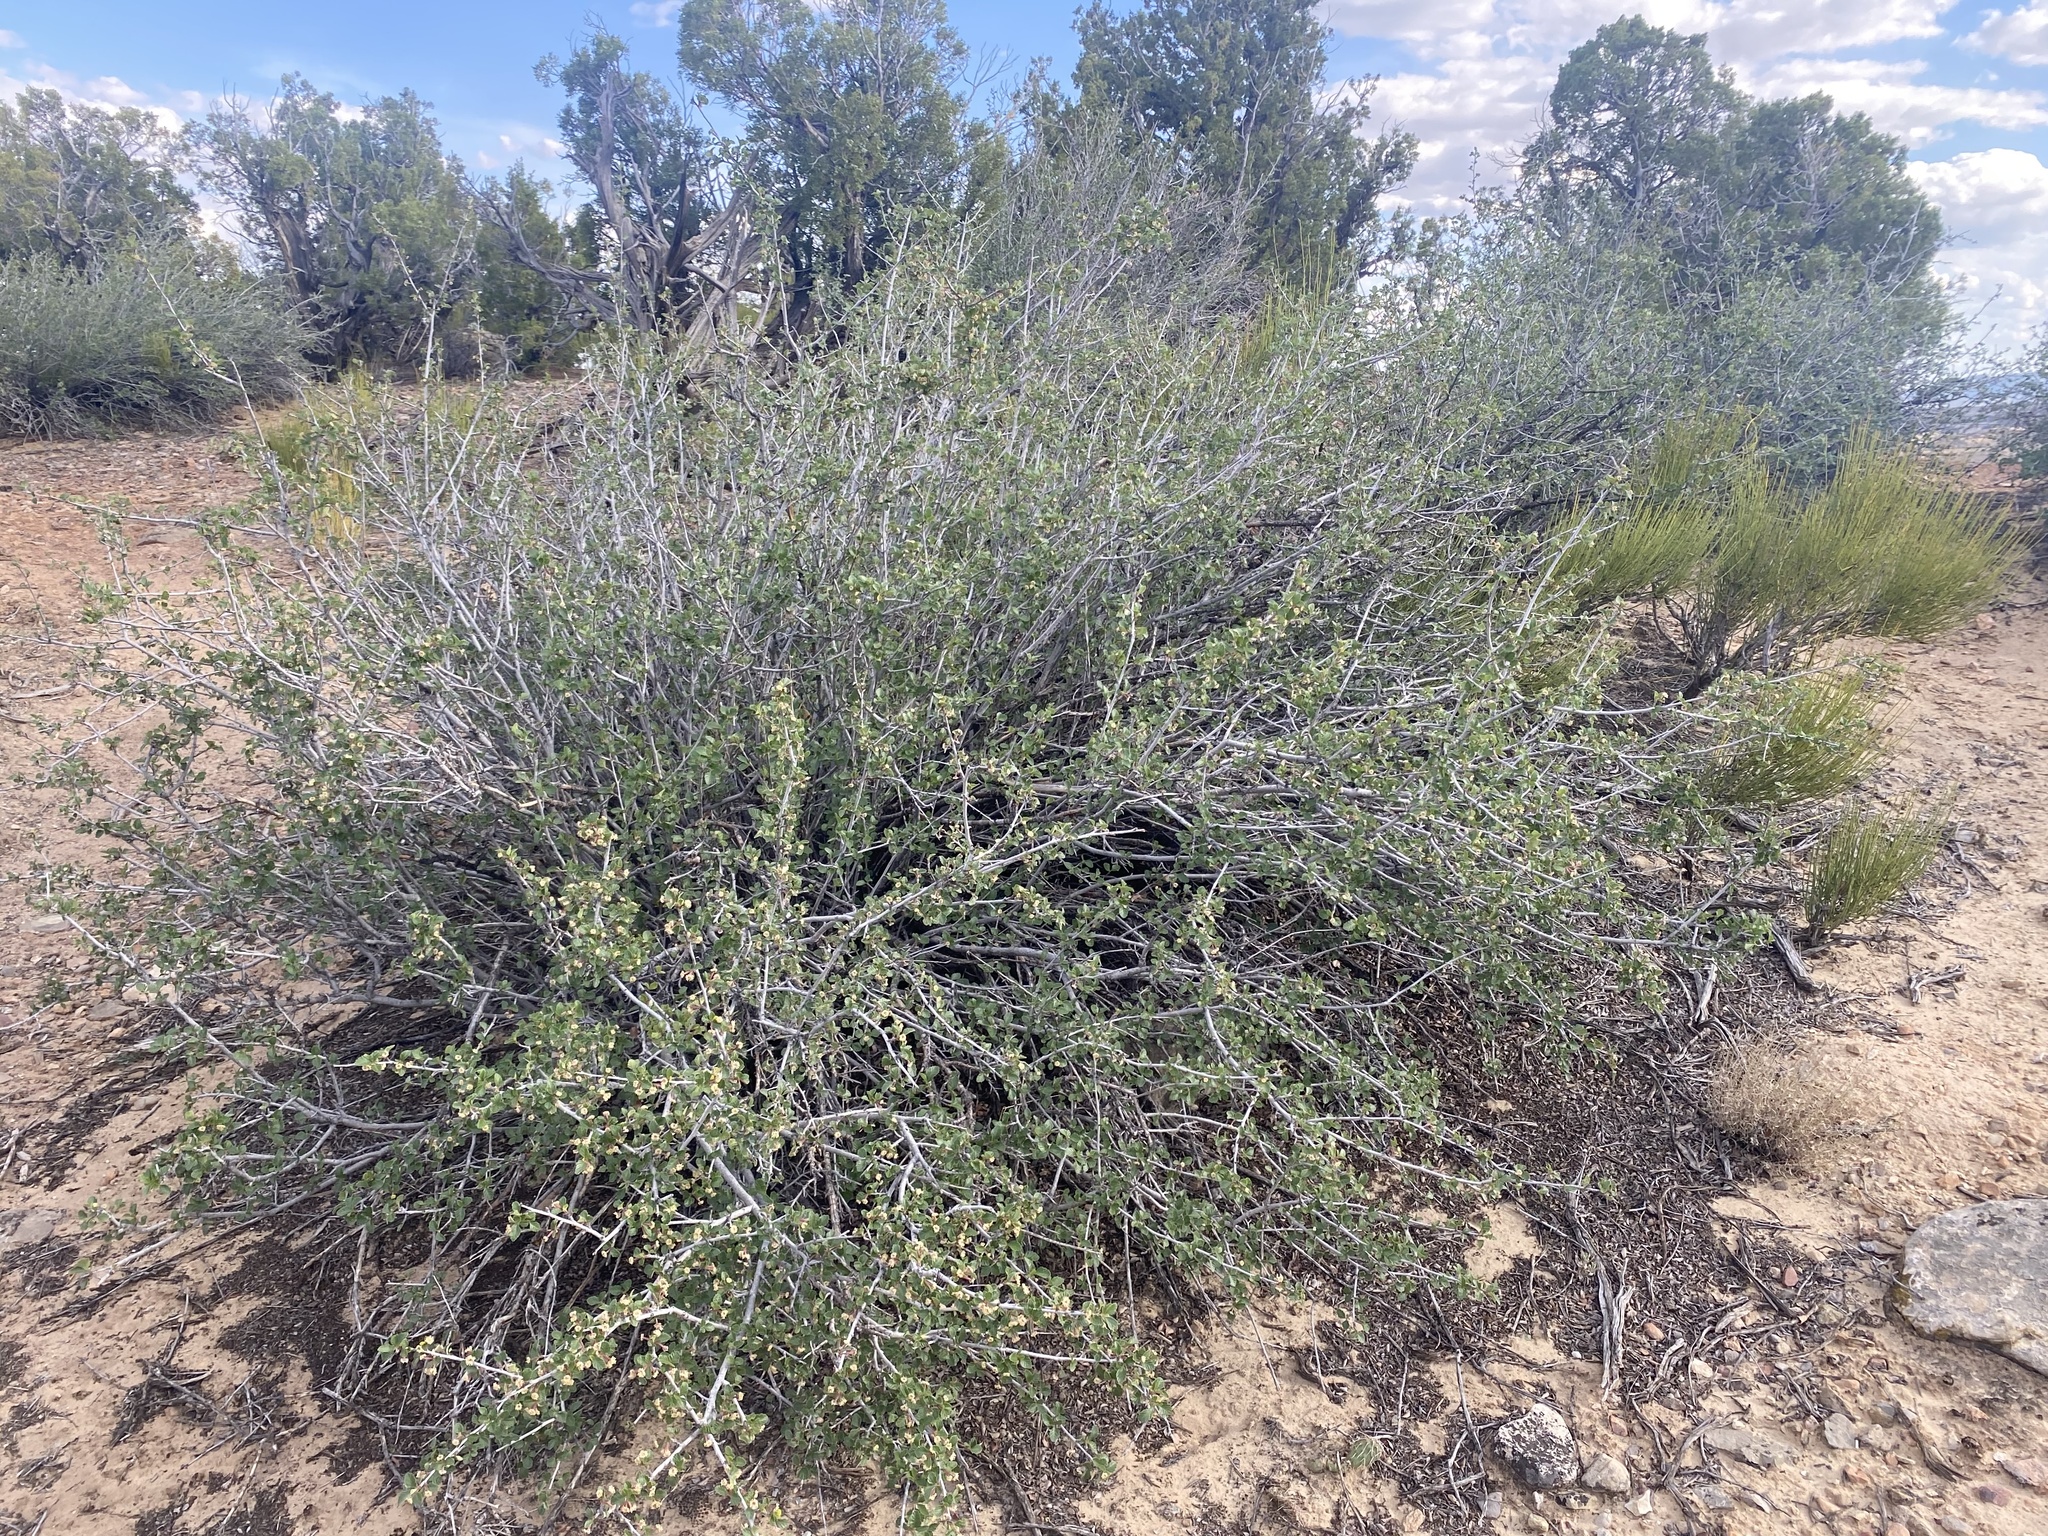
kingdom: Plantae
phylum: Tracheophyta
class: Magnoliopsida
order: Rosales
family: Rosaceae
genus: Cercocarpus
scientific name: Cercocarpus montanus
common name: Alder-leaf cercocarpus
